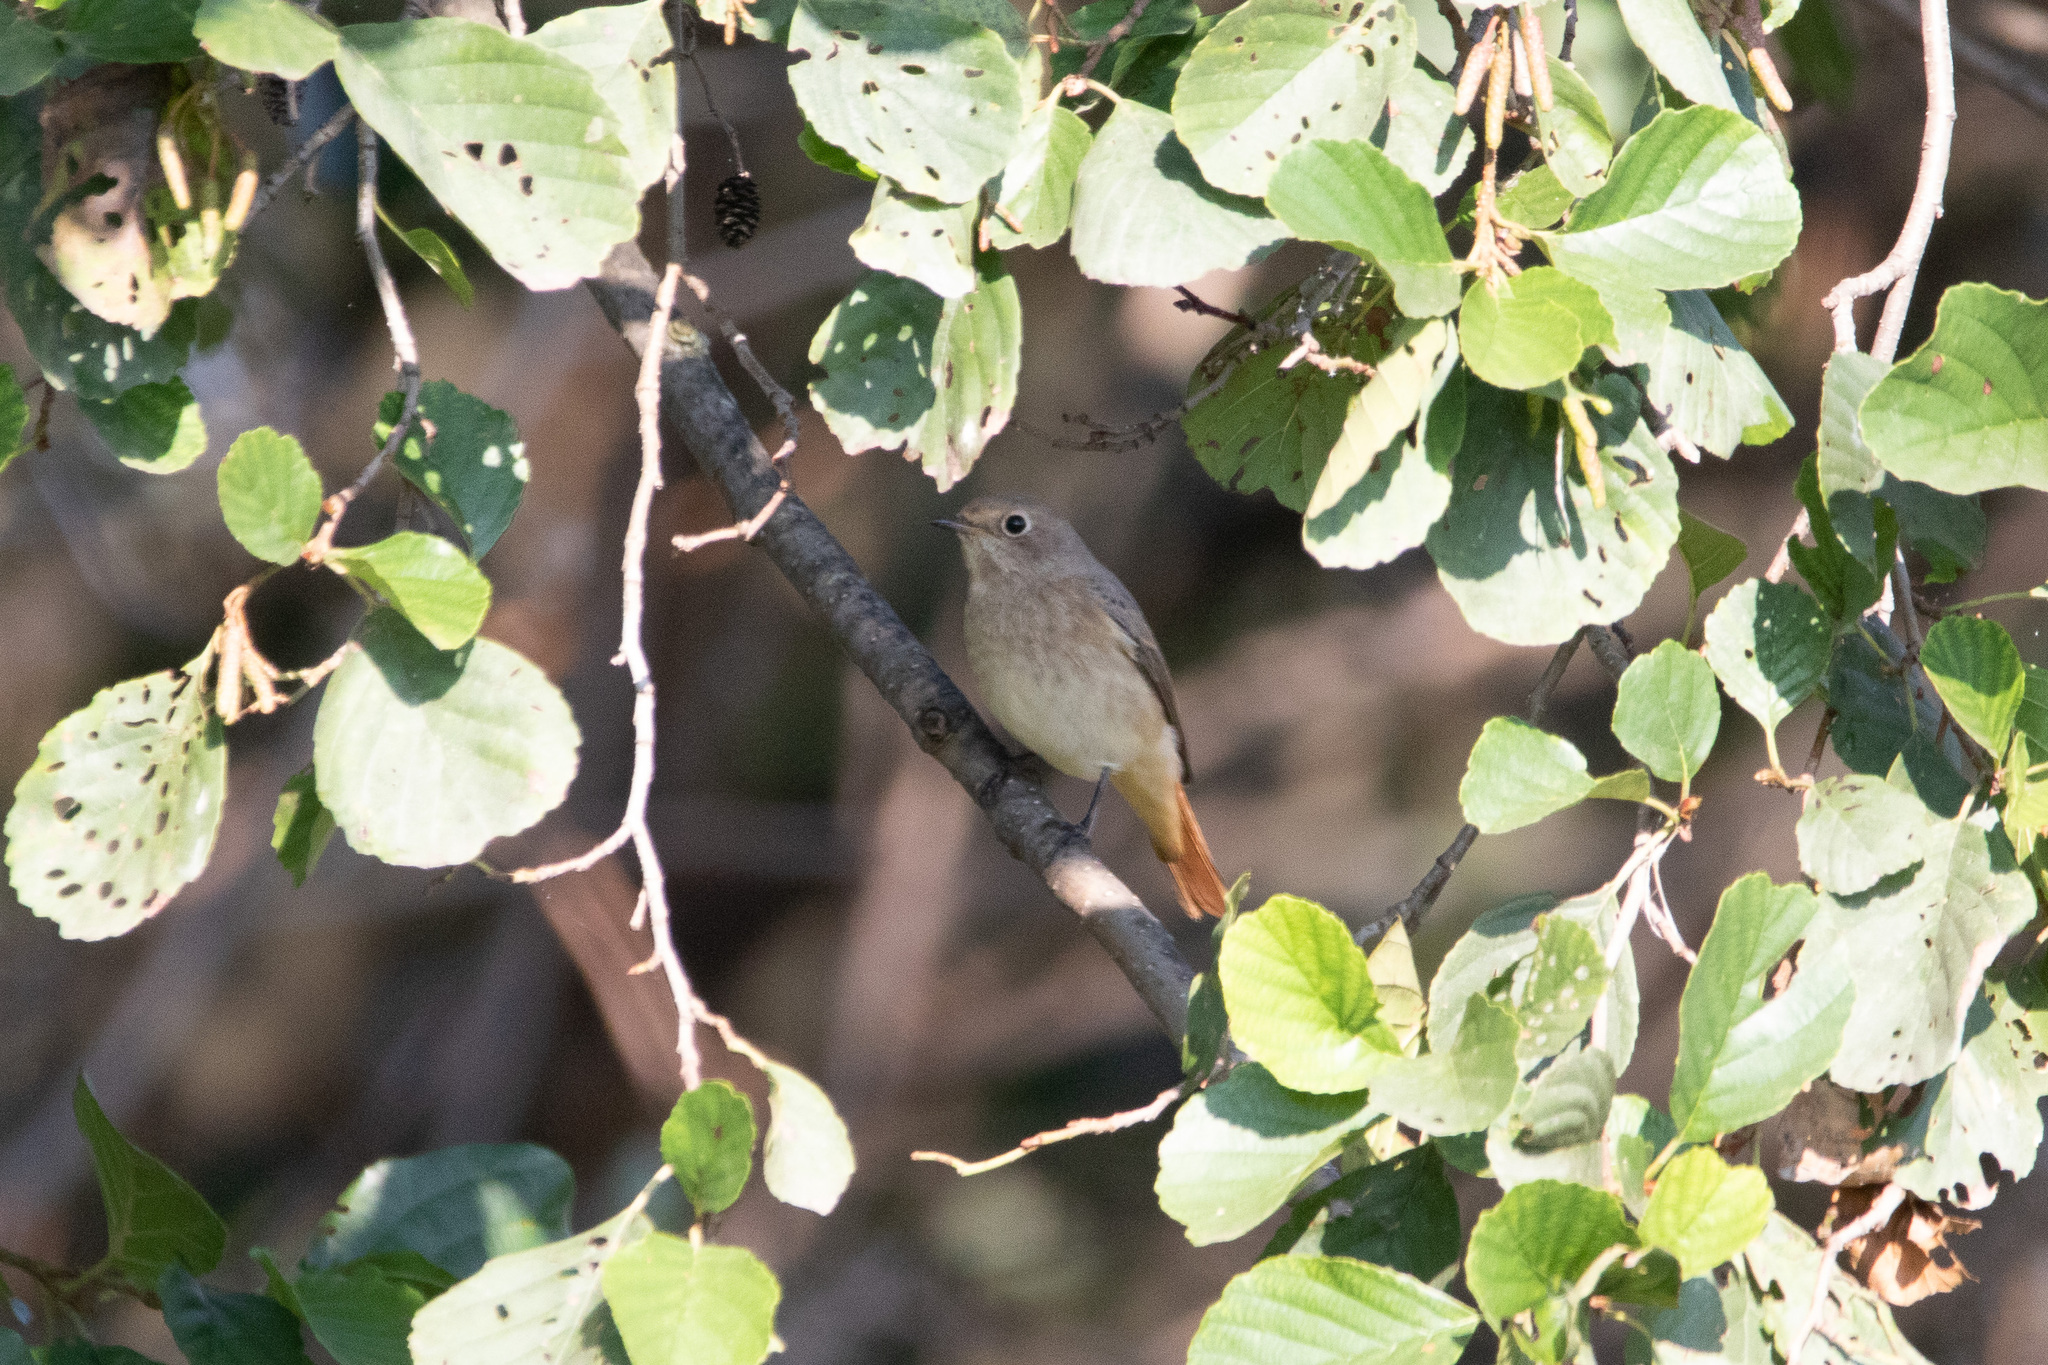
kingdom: Animalia
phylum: Chordata
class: Aves
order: Passeriformes
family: Muscicapidae
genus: Phoenicurus
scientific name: Phoenicurus phoenicurus
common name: Common redstart
